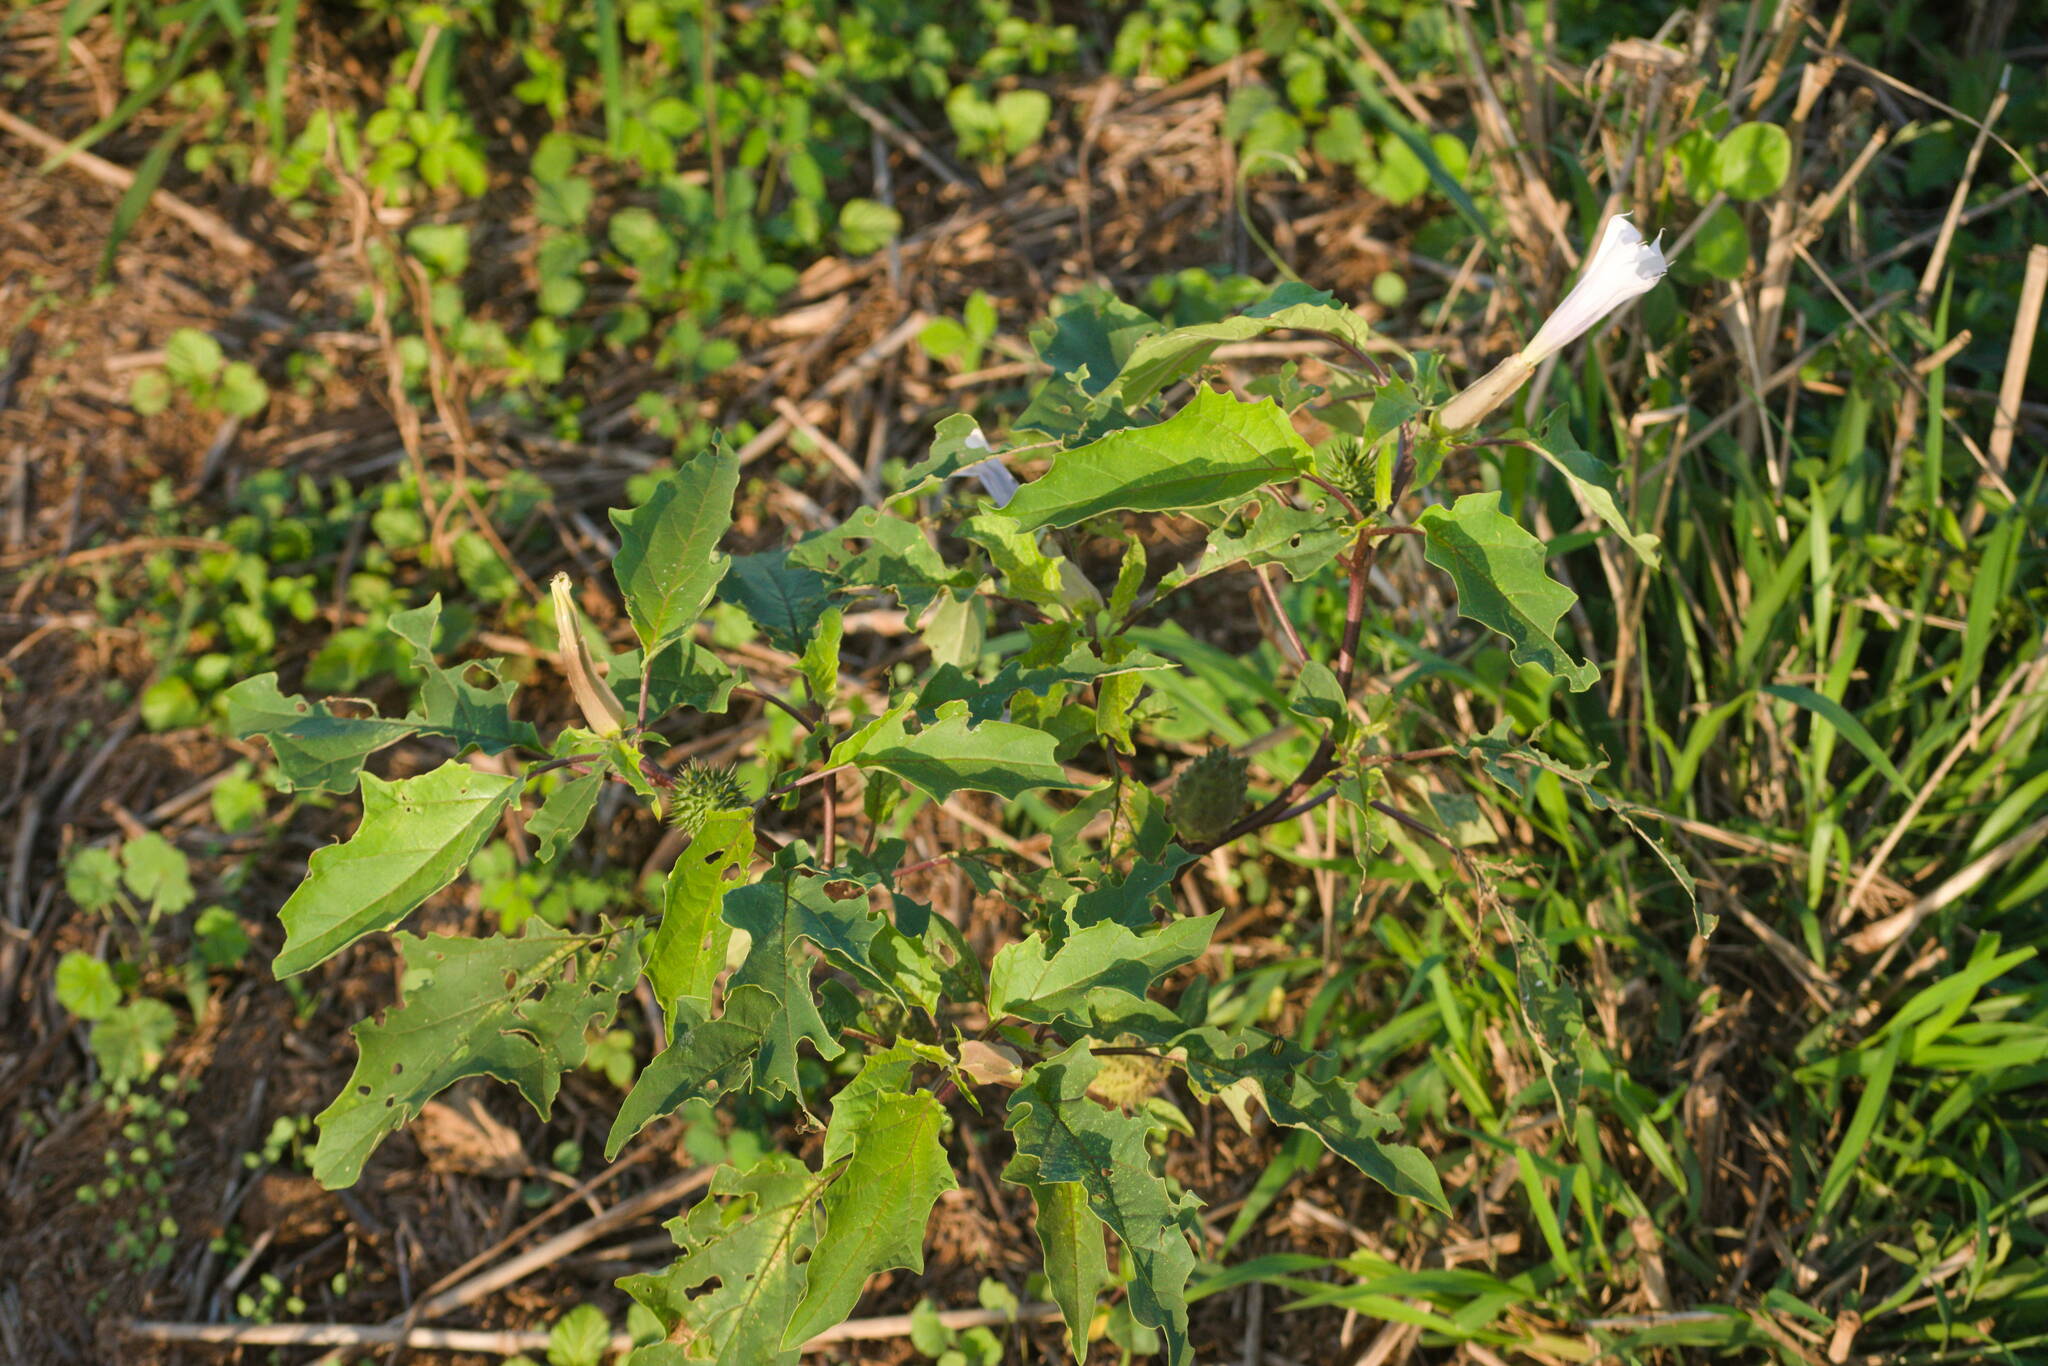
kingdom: Plantae
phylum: Tracheophyta
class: Magnoliopsida
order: Solanales
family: Solanaceae
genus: Datura
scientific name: Datura stramonium
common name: Thorn-apple
